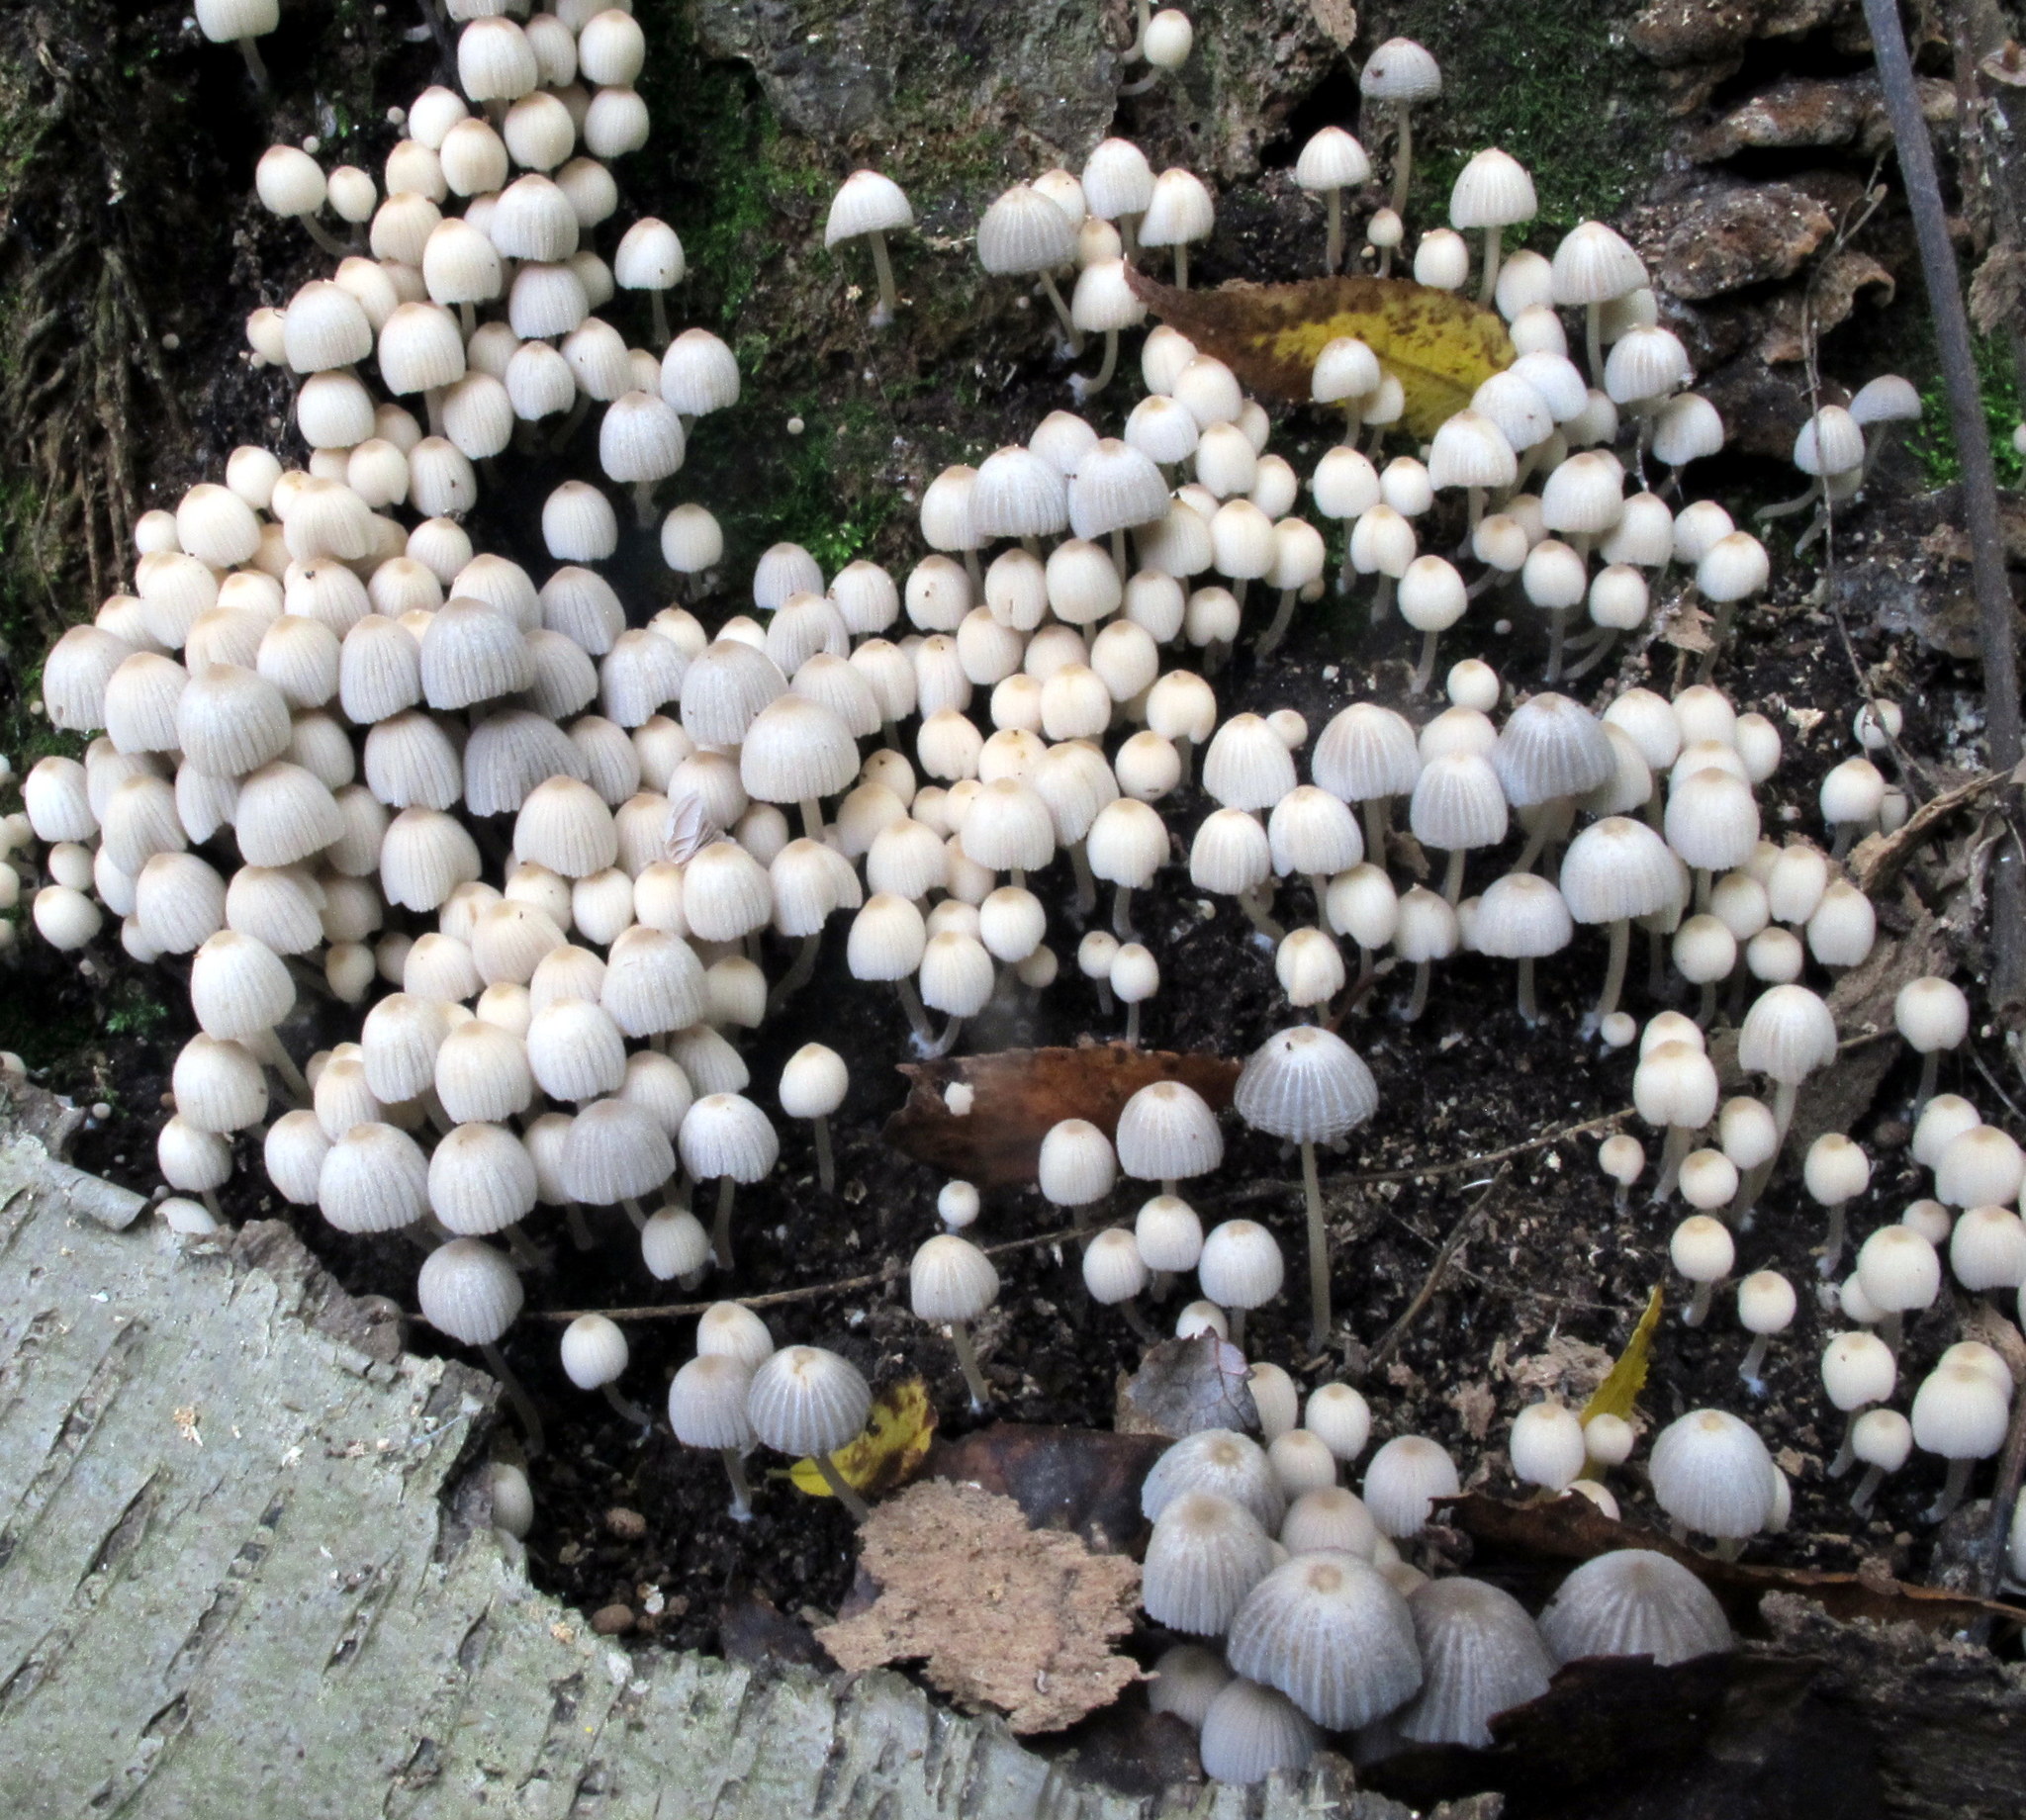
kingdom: Fungi
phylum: Basidiomycota
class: Agaricomycetes
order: Agaricales
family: Psathyrellaceae
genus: Coprinellus
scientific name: Coprinellus disseminatus
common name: Fairies' bonnets
